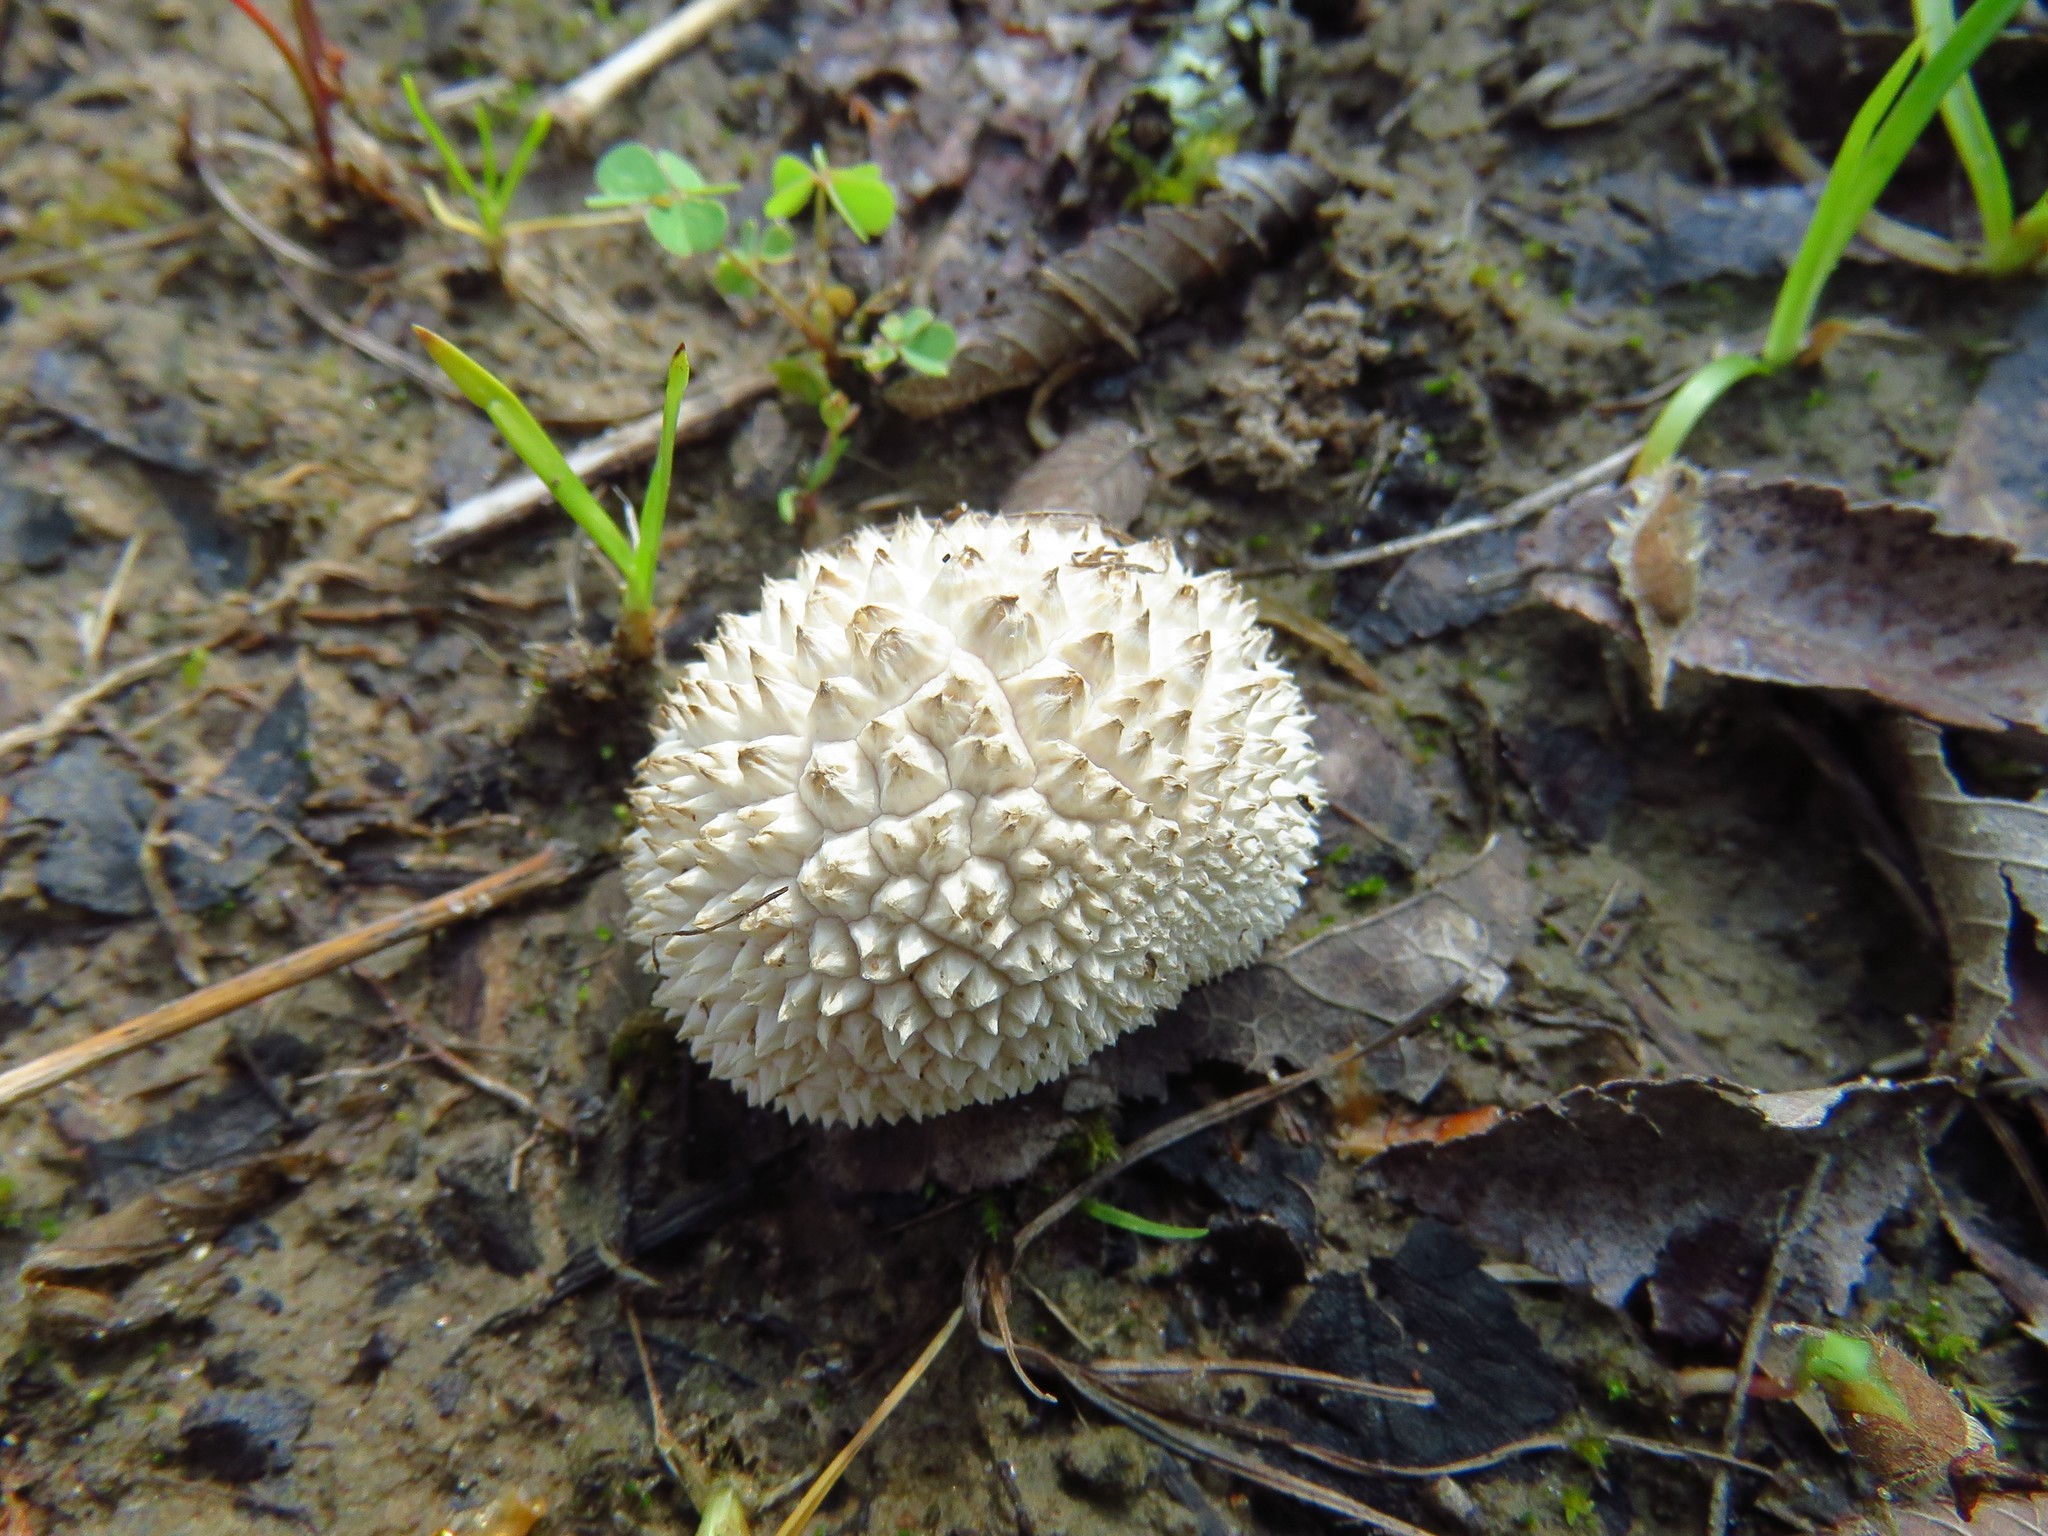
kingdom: Fungi
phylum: Basidiomycota
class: Agaricomycetes
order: Agaricales
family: Agaricaceae
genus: Lycoperdon
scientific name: Lycoperdon marginatum
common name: Peeling puffball
